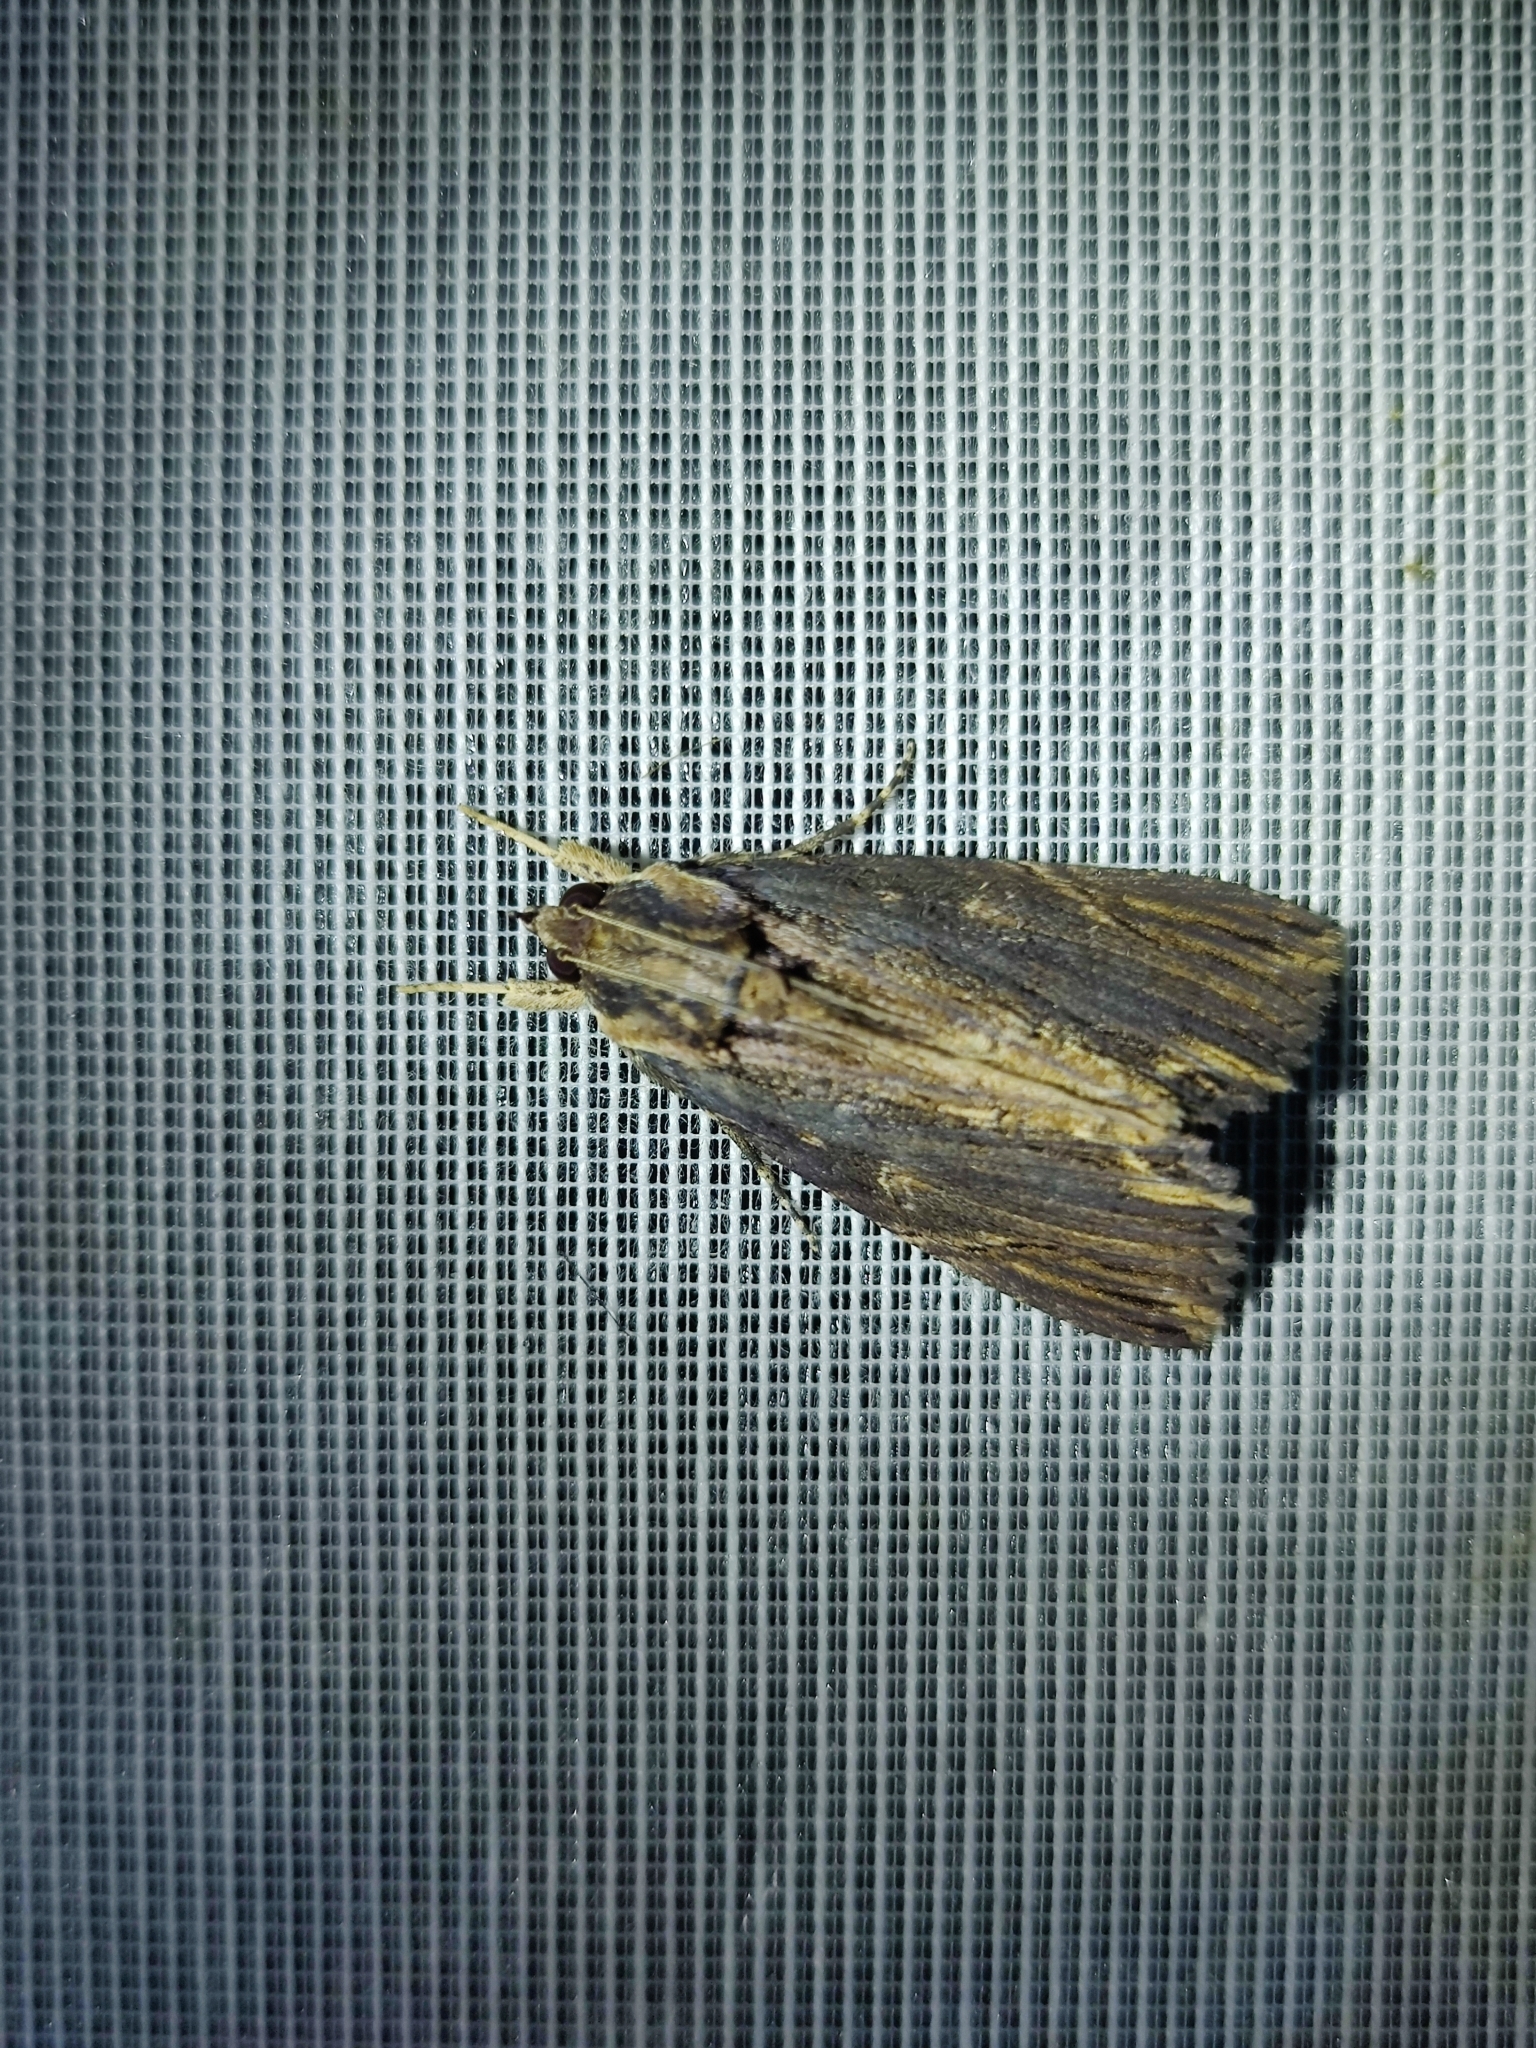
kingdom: Animalia
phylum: Arthropoda
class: Insecta
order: Lepidoptera
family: Erebidae
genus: Ercheia
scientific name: Ercheia umbrosa
